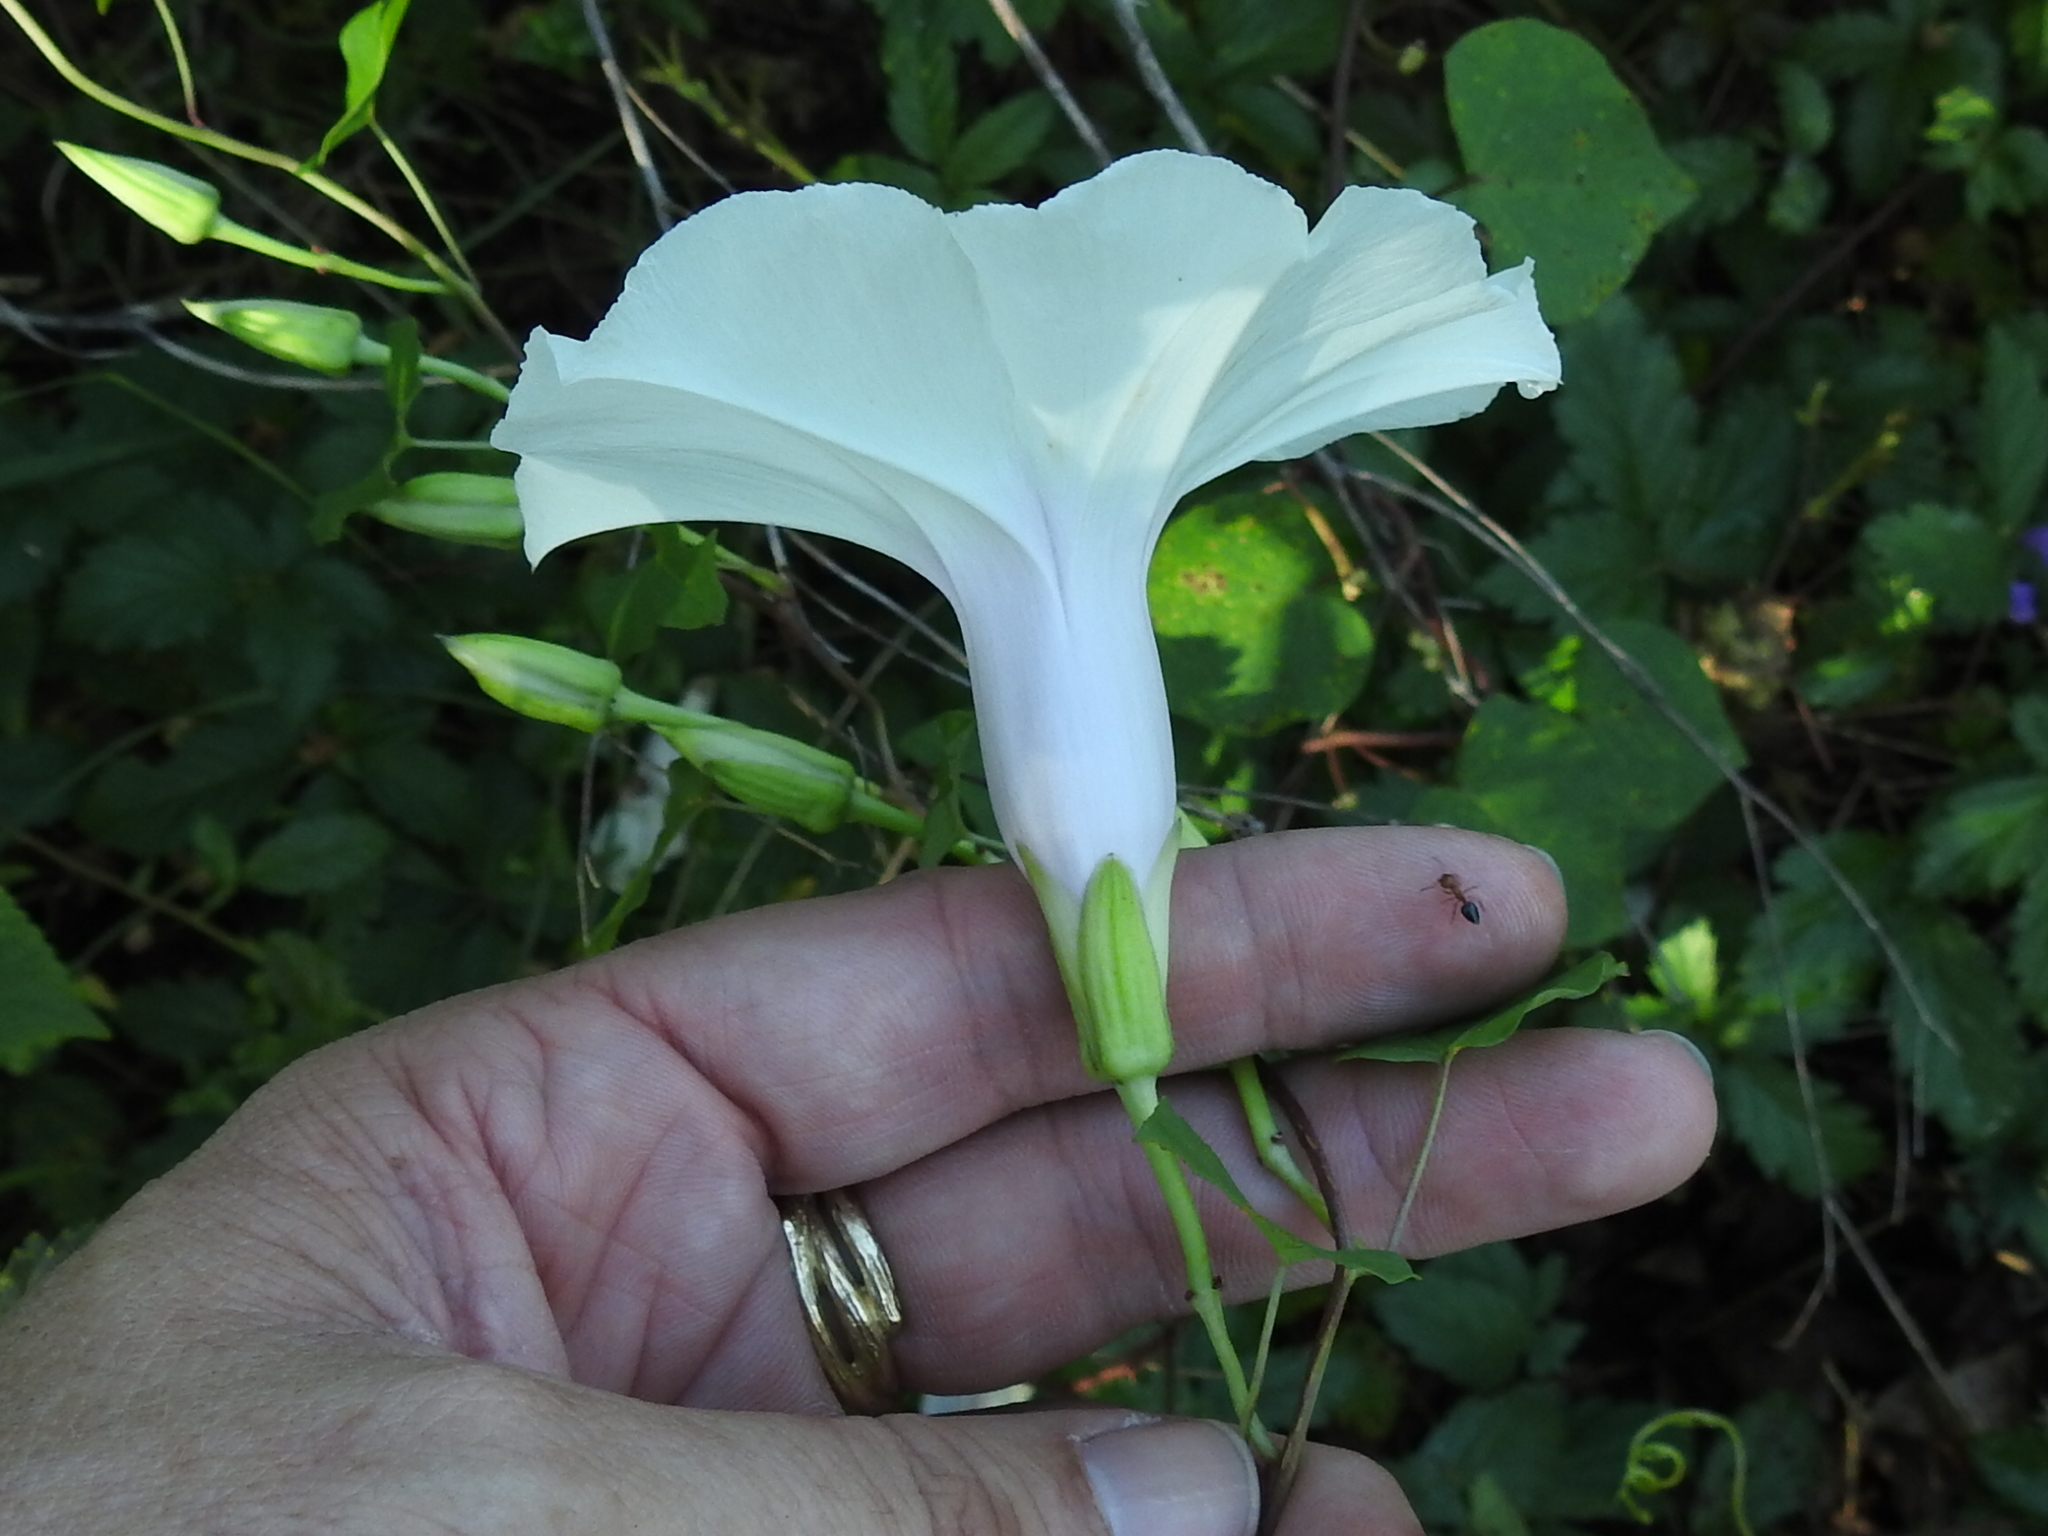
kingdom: Plantae
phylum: Tracheophyta
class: Magnoliopsida
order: Solanales
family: Convolvulaceae
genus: Ipomoea
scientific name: Ipomoea pandurata
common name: Man-of-the-earth
